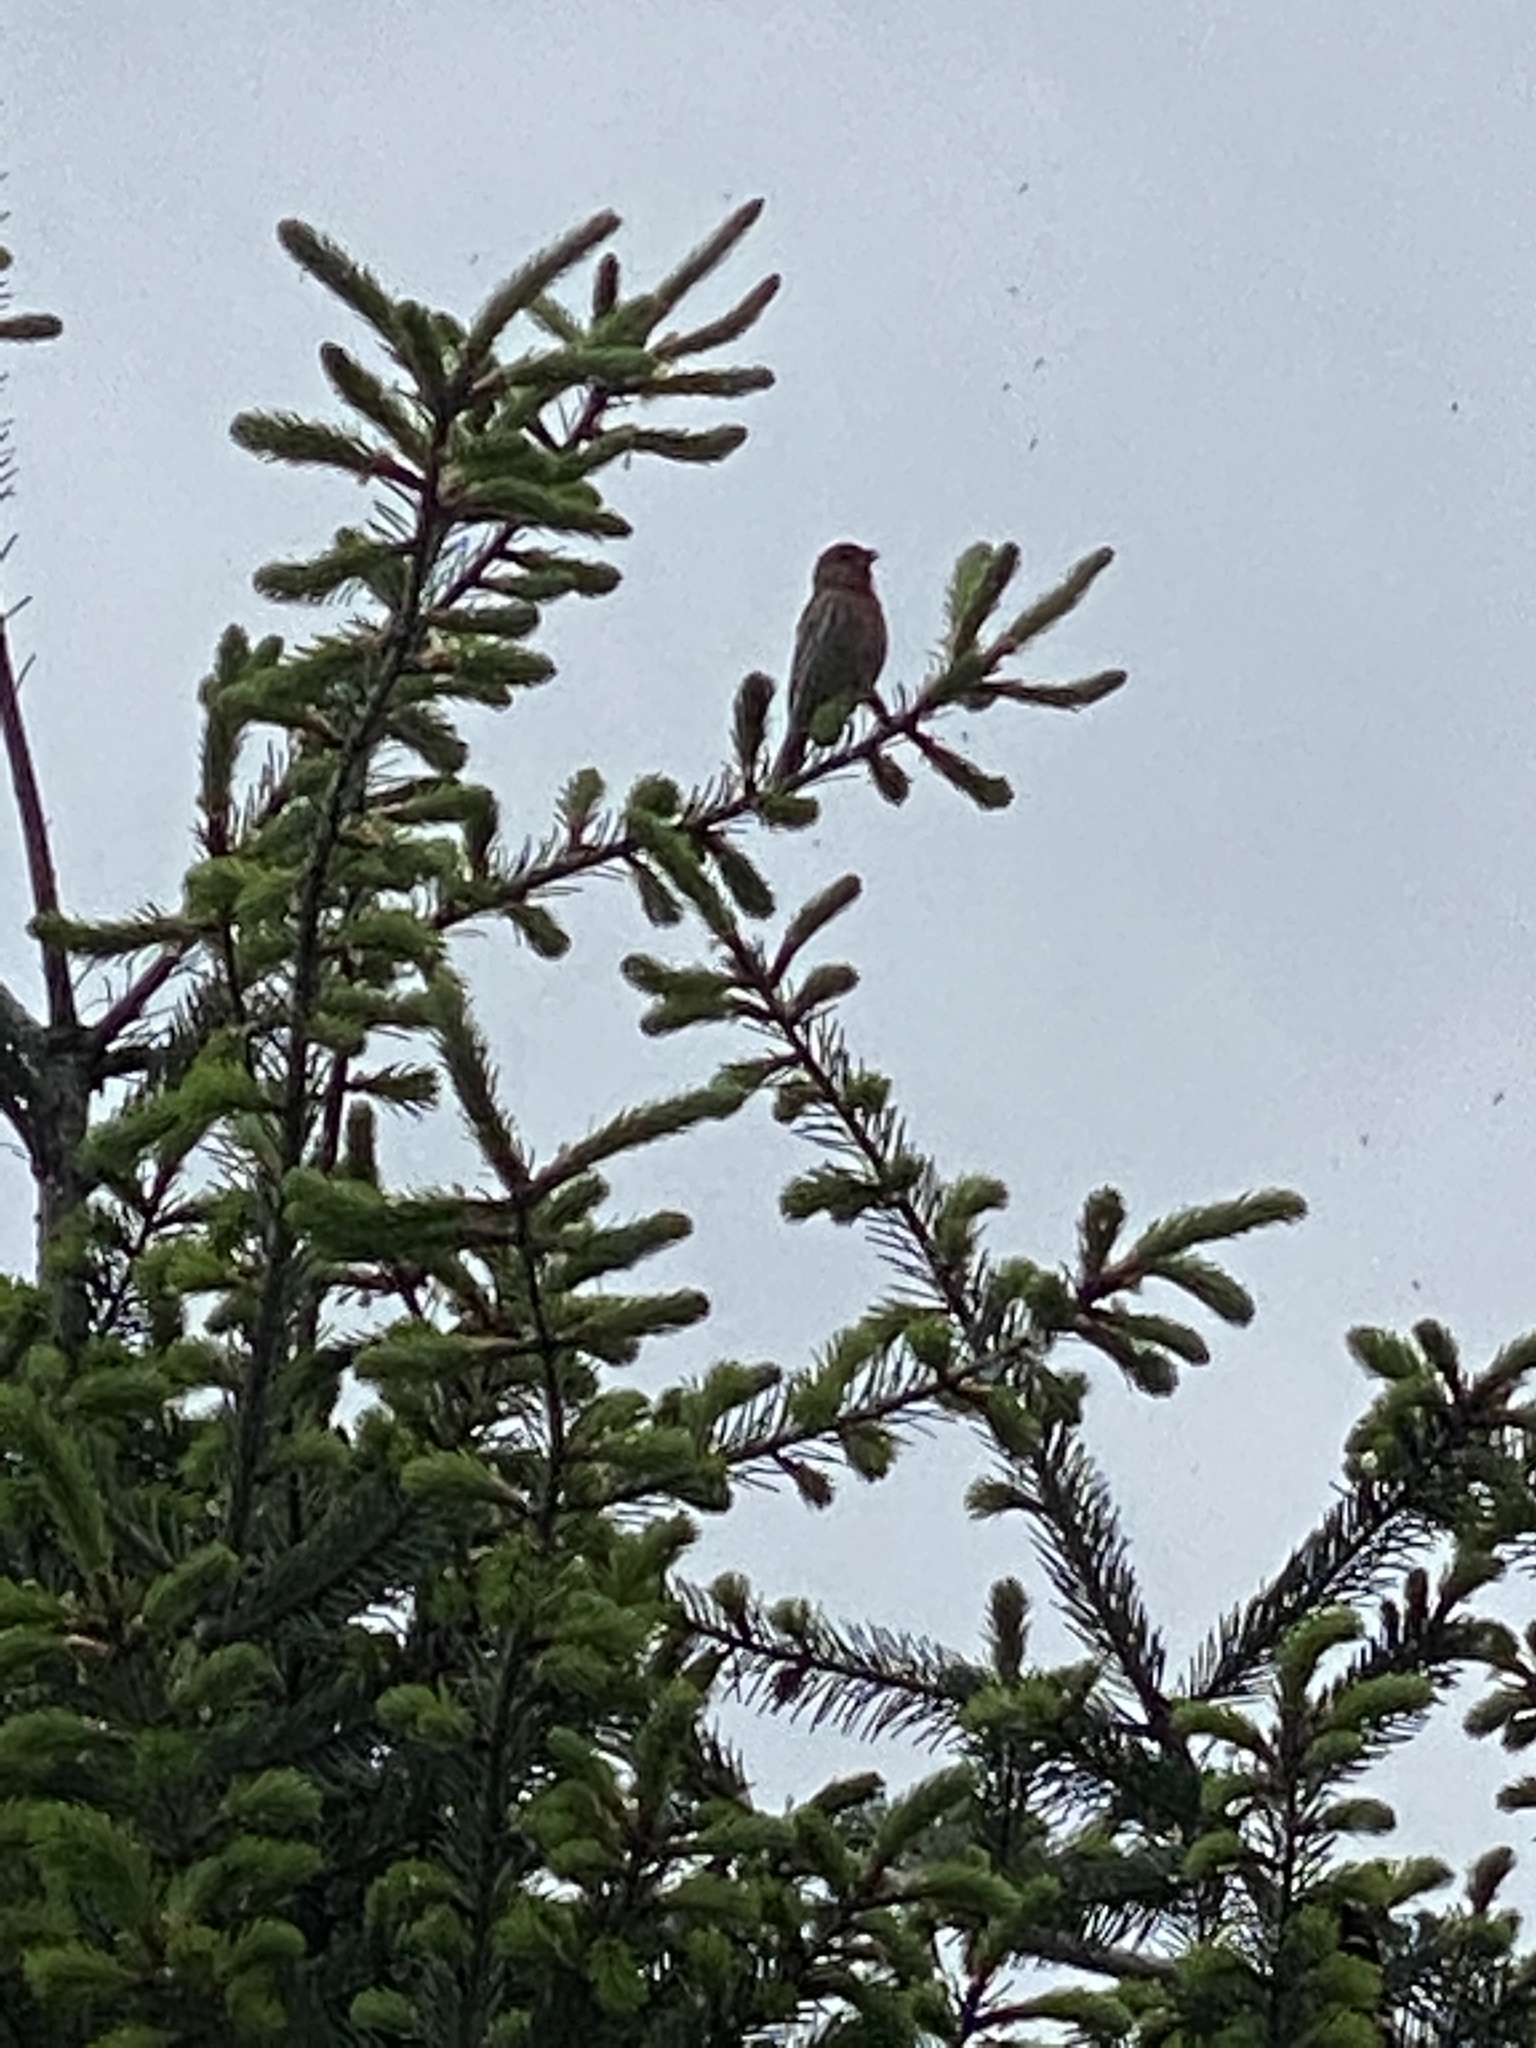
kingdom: Animalia
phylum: Chordata
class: Aves
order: Passeriformes
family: Fringillidae
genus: Haemorhous
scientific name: Haemorhous mexicanus
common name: House finch
